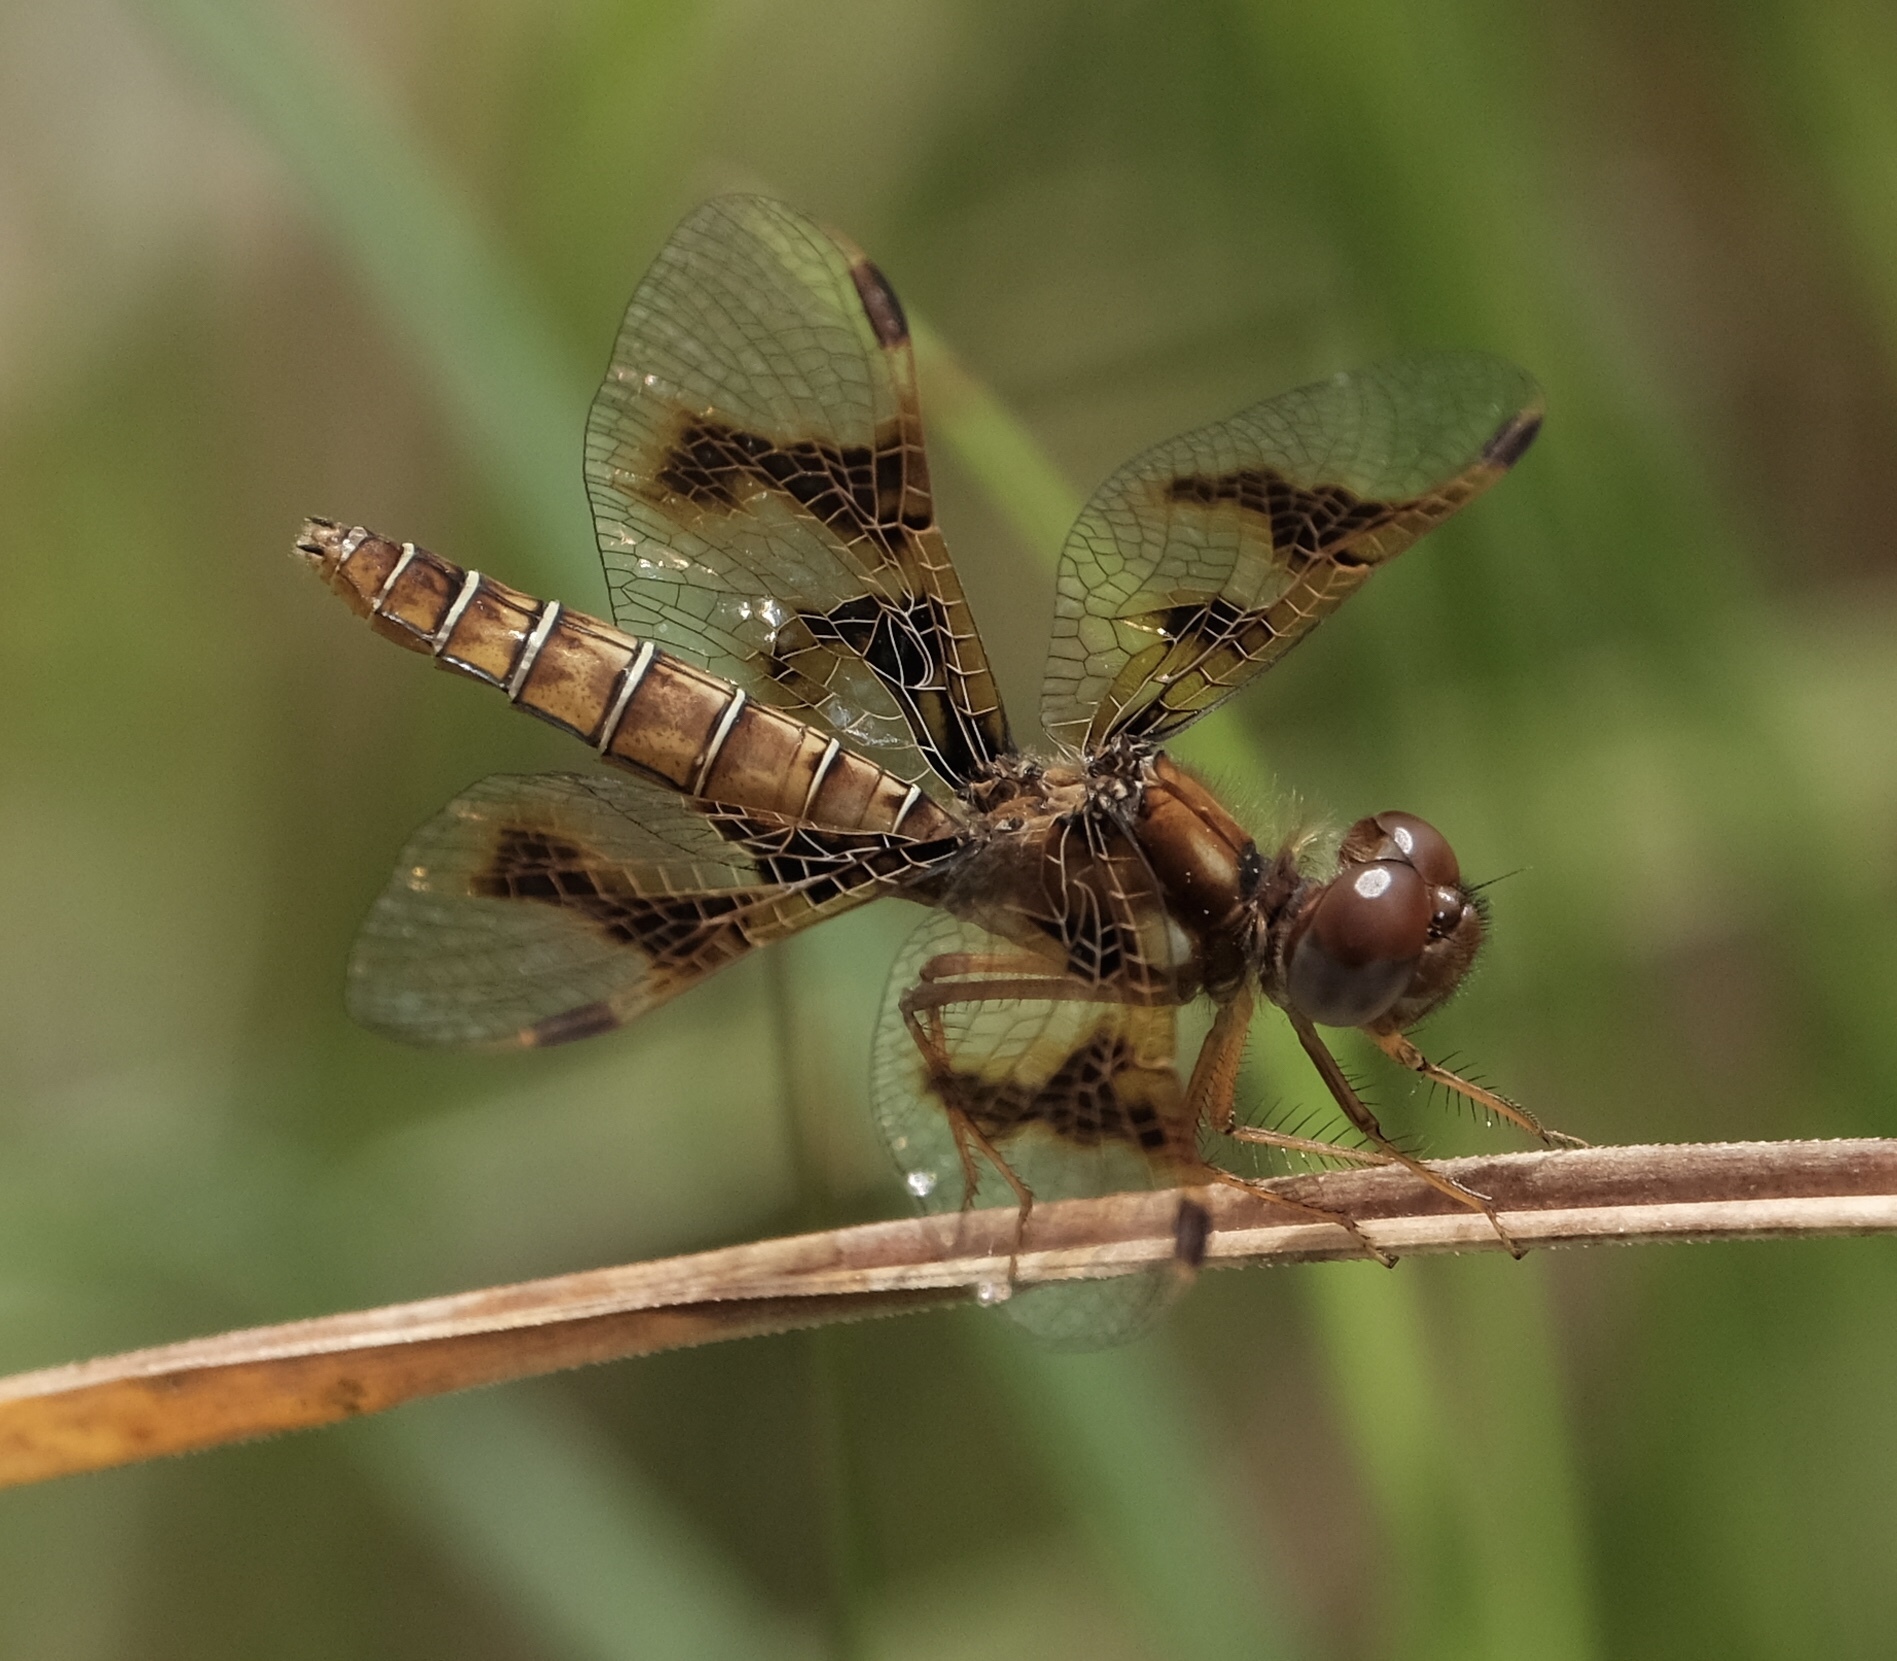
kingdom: Animalia
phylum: Arthropoda
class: Insecta
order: Odonata
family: Libellulidae
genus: Perithemis
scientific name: Perithemis tenera
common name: Eastern amberwing
